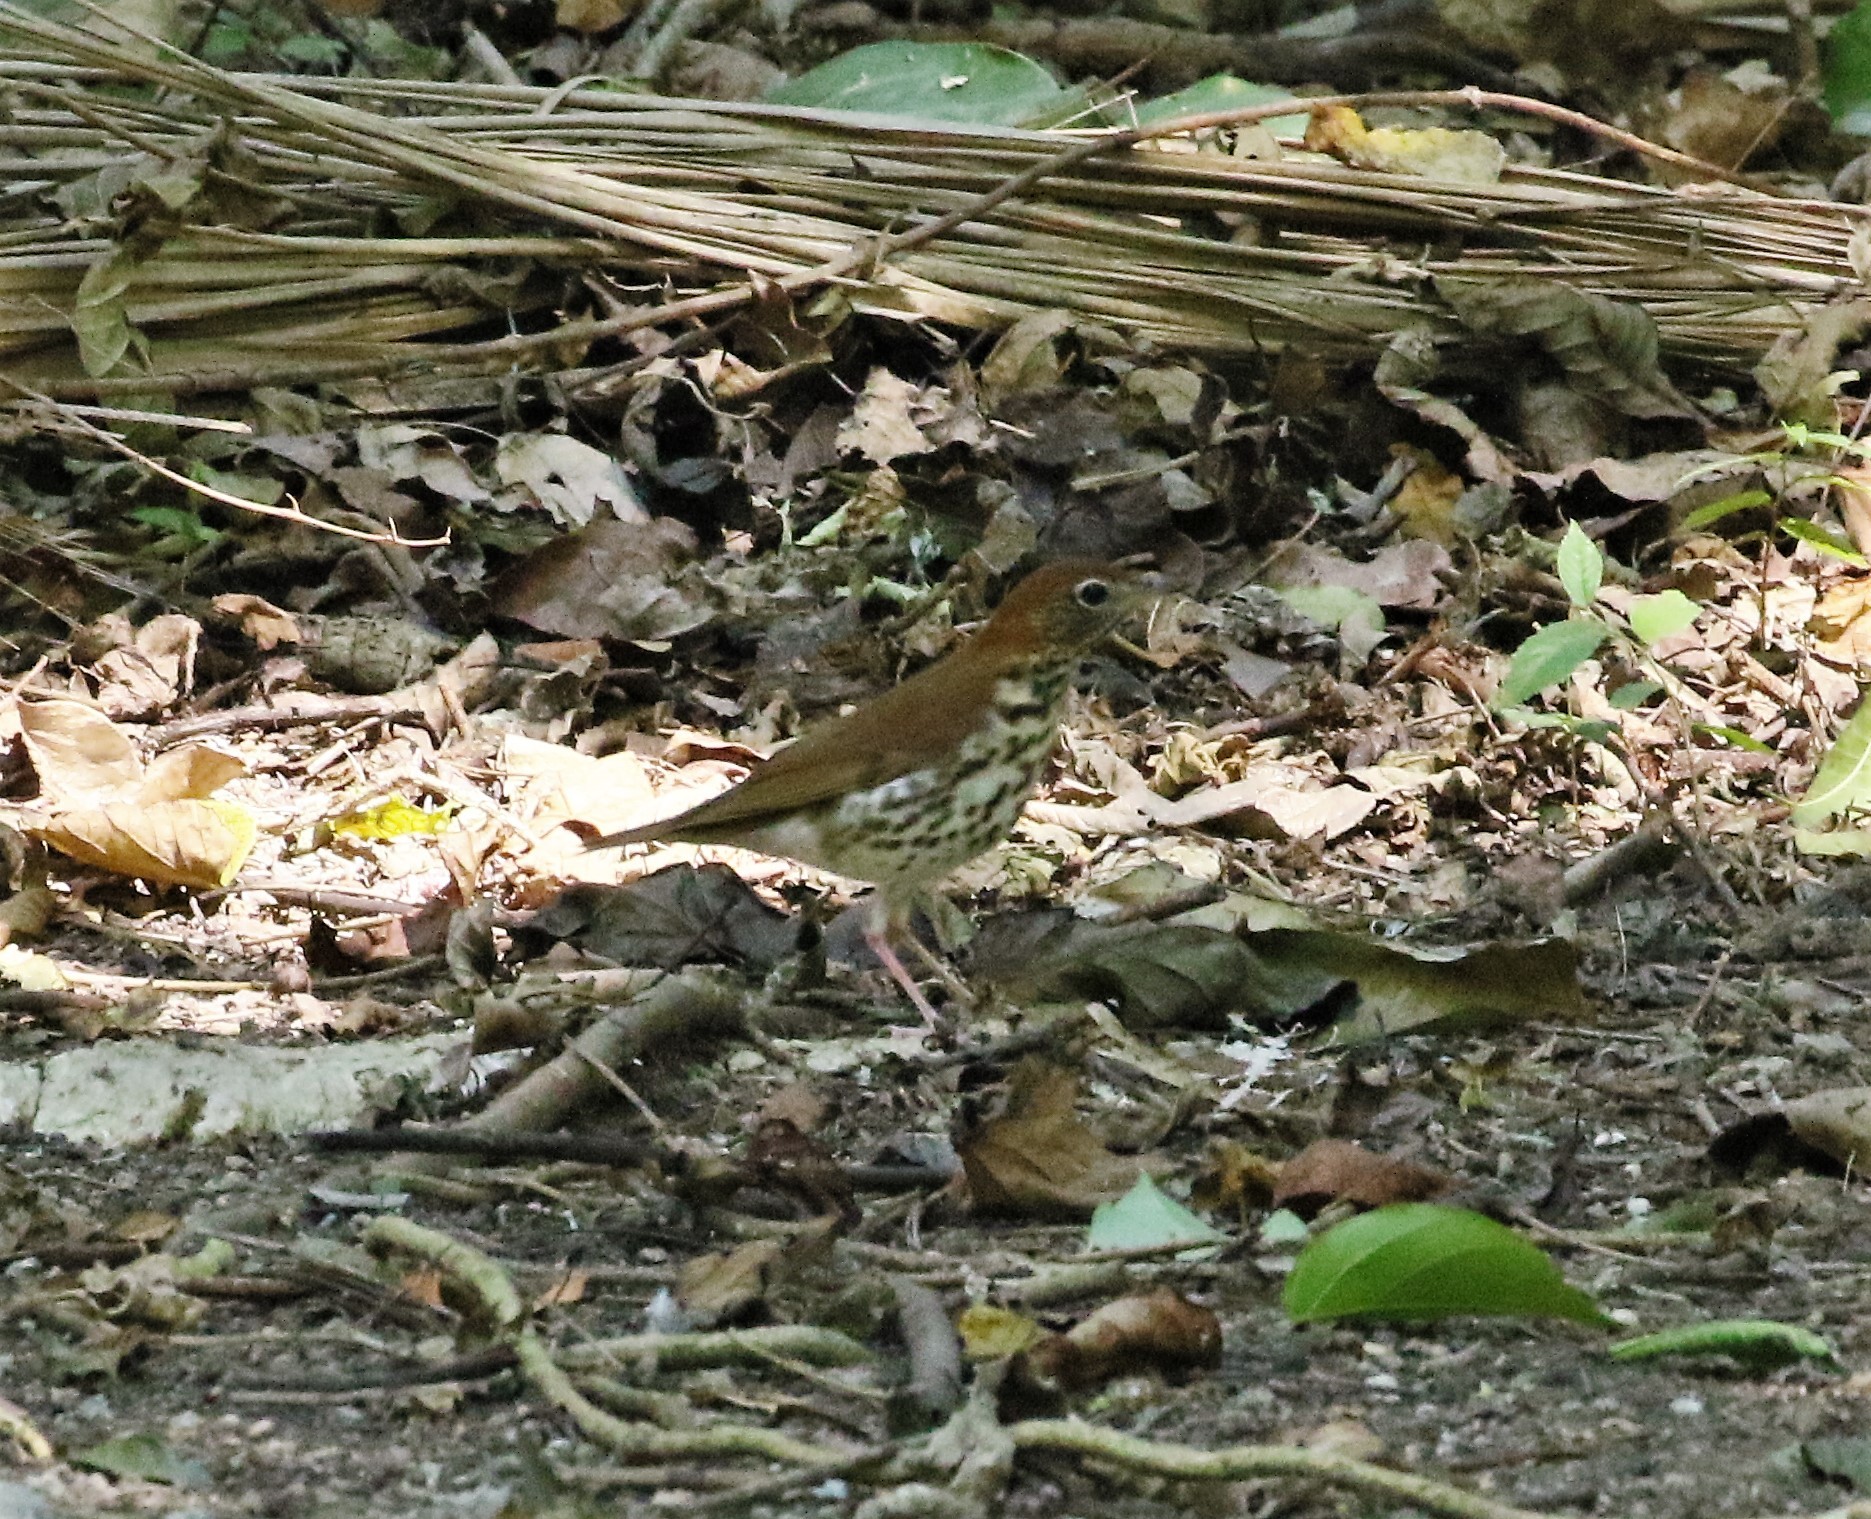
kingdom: Animalia
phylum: Chordata
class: Aves
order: Passeriformes
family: Turdidae
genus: Hylocichla
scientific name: Hylocichla mustelina
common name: Wood thrush
